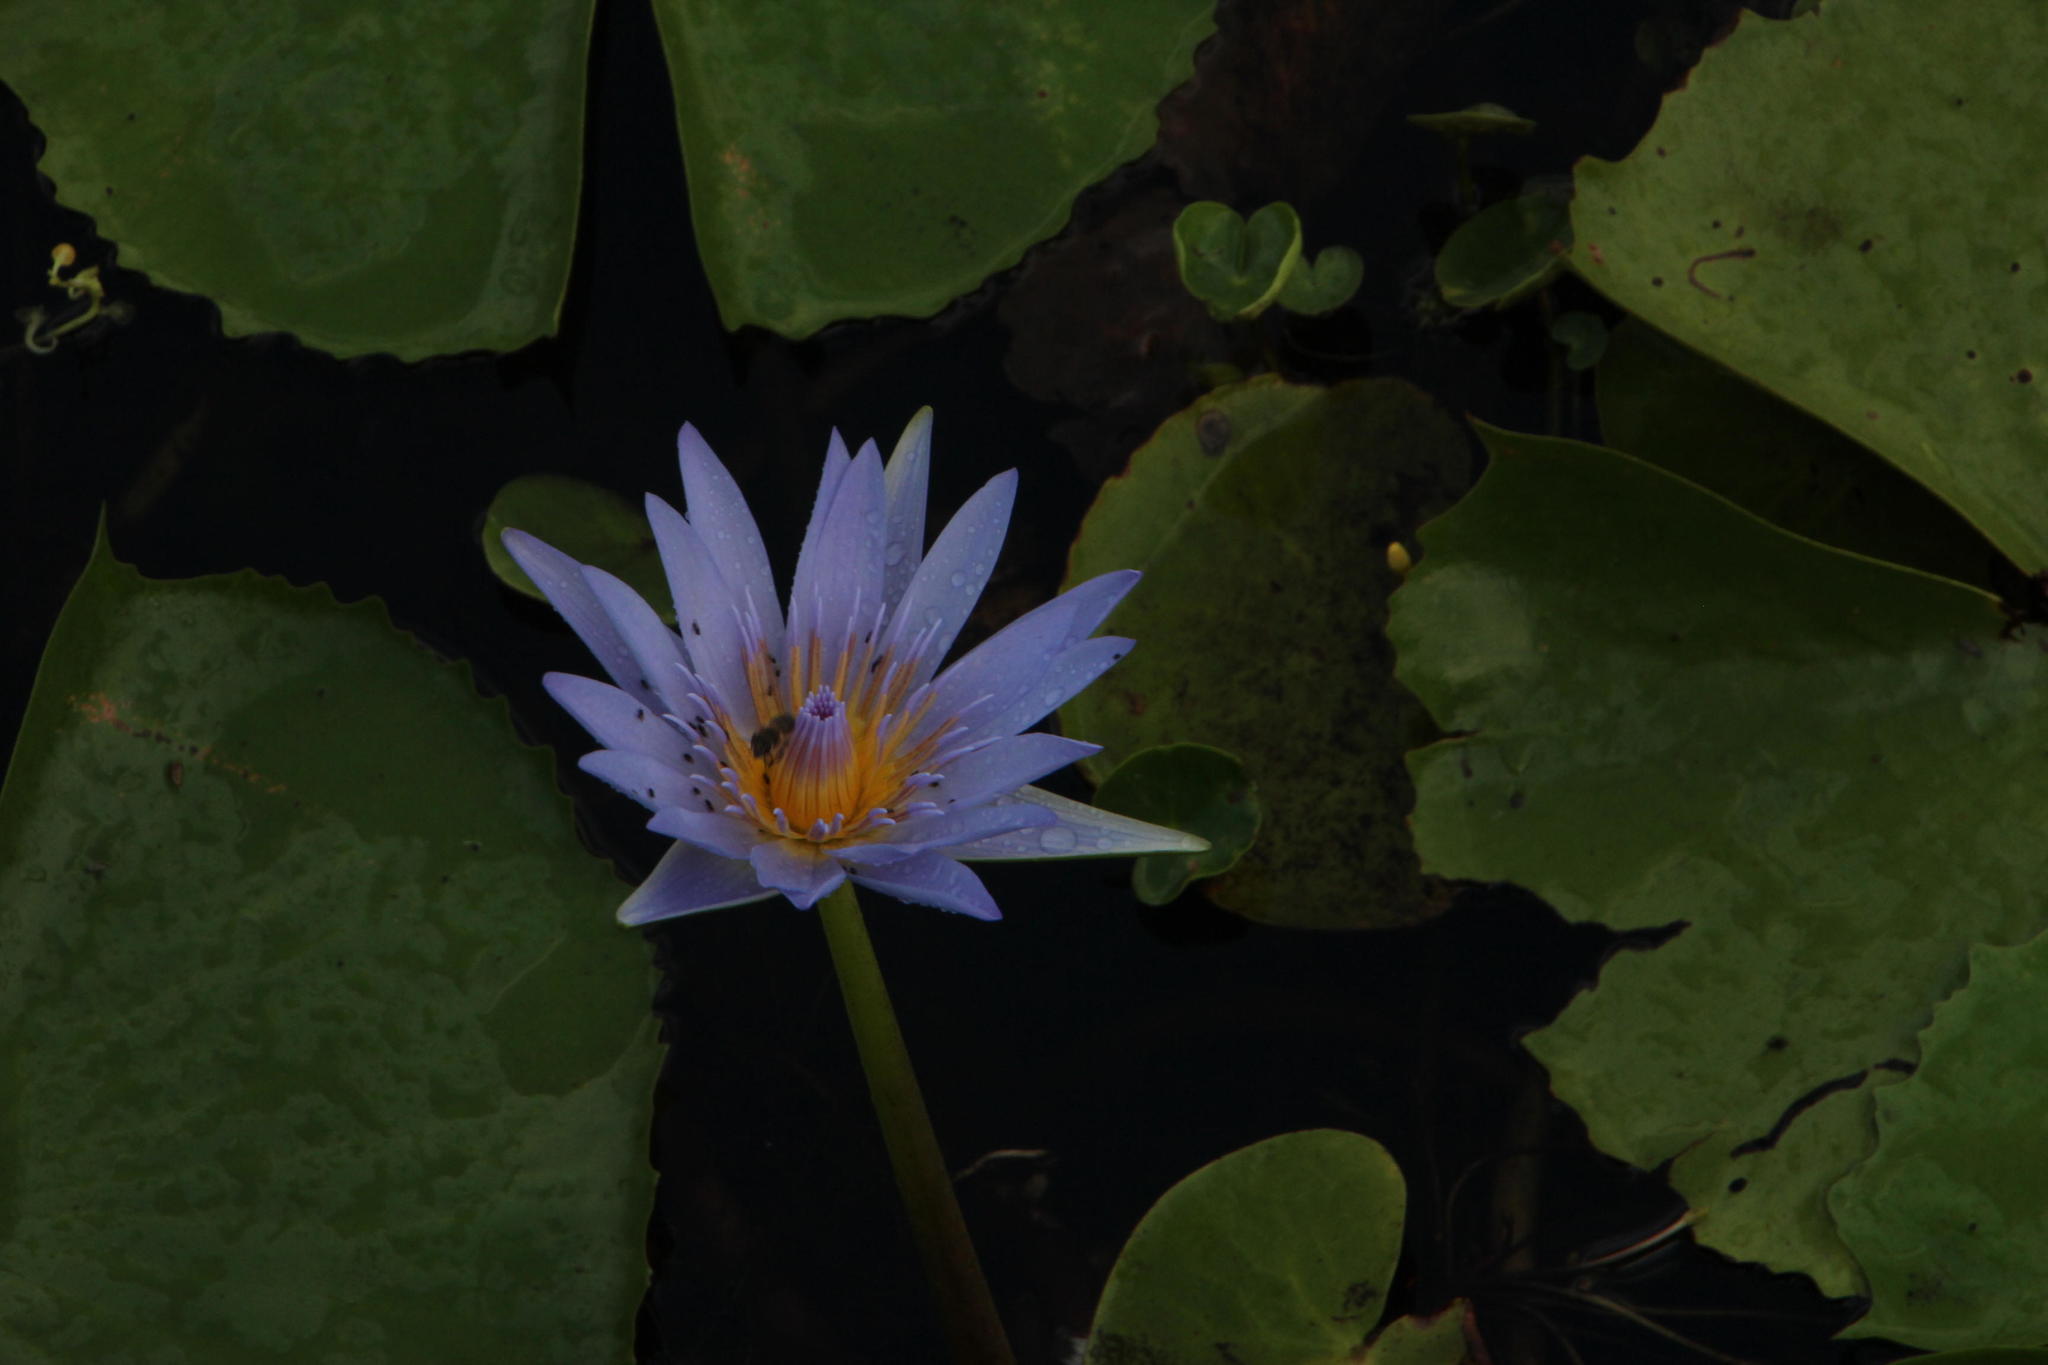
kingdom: Animalia
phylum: Arthropoda
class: Insecta
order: Hymenoptera
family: Apidae
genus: Apis
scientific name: Apis mellifera
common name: Honey bee
